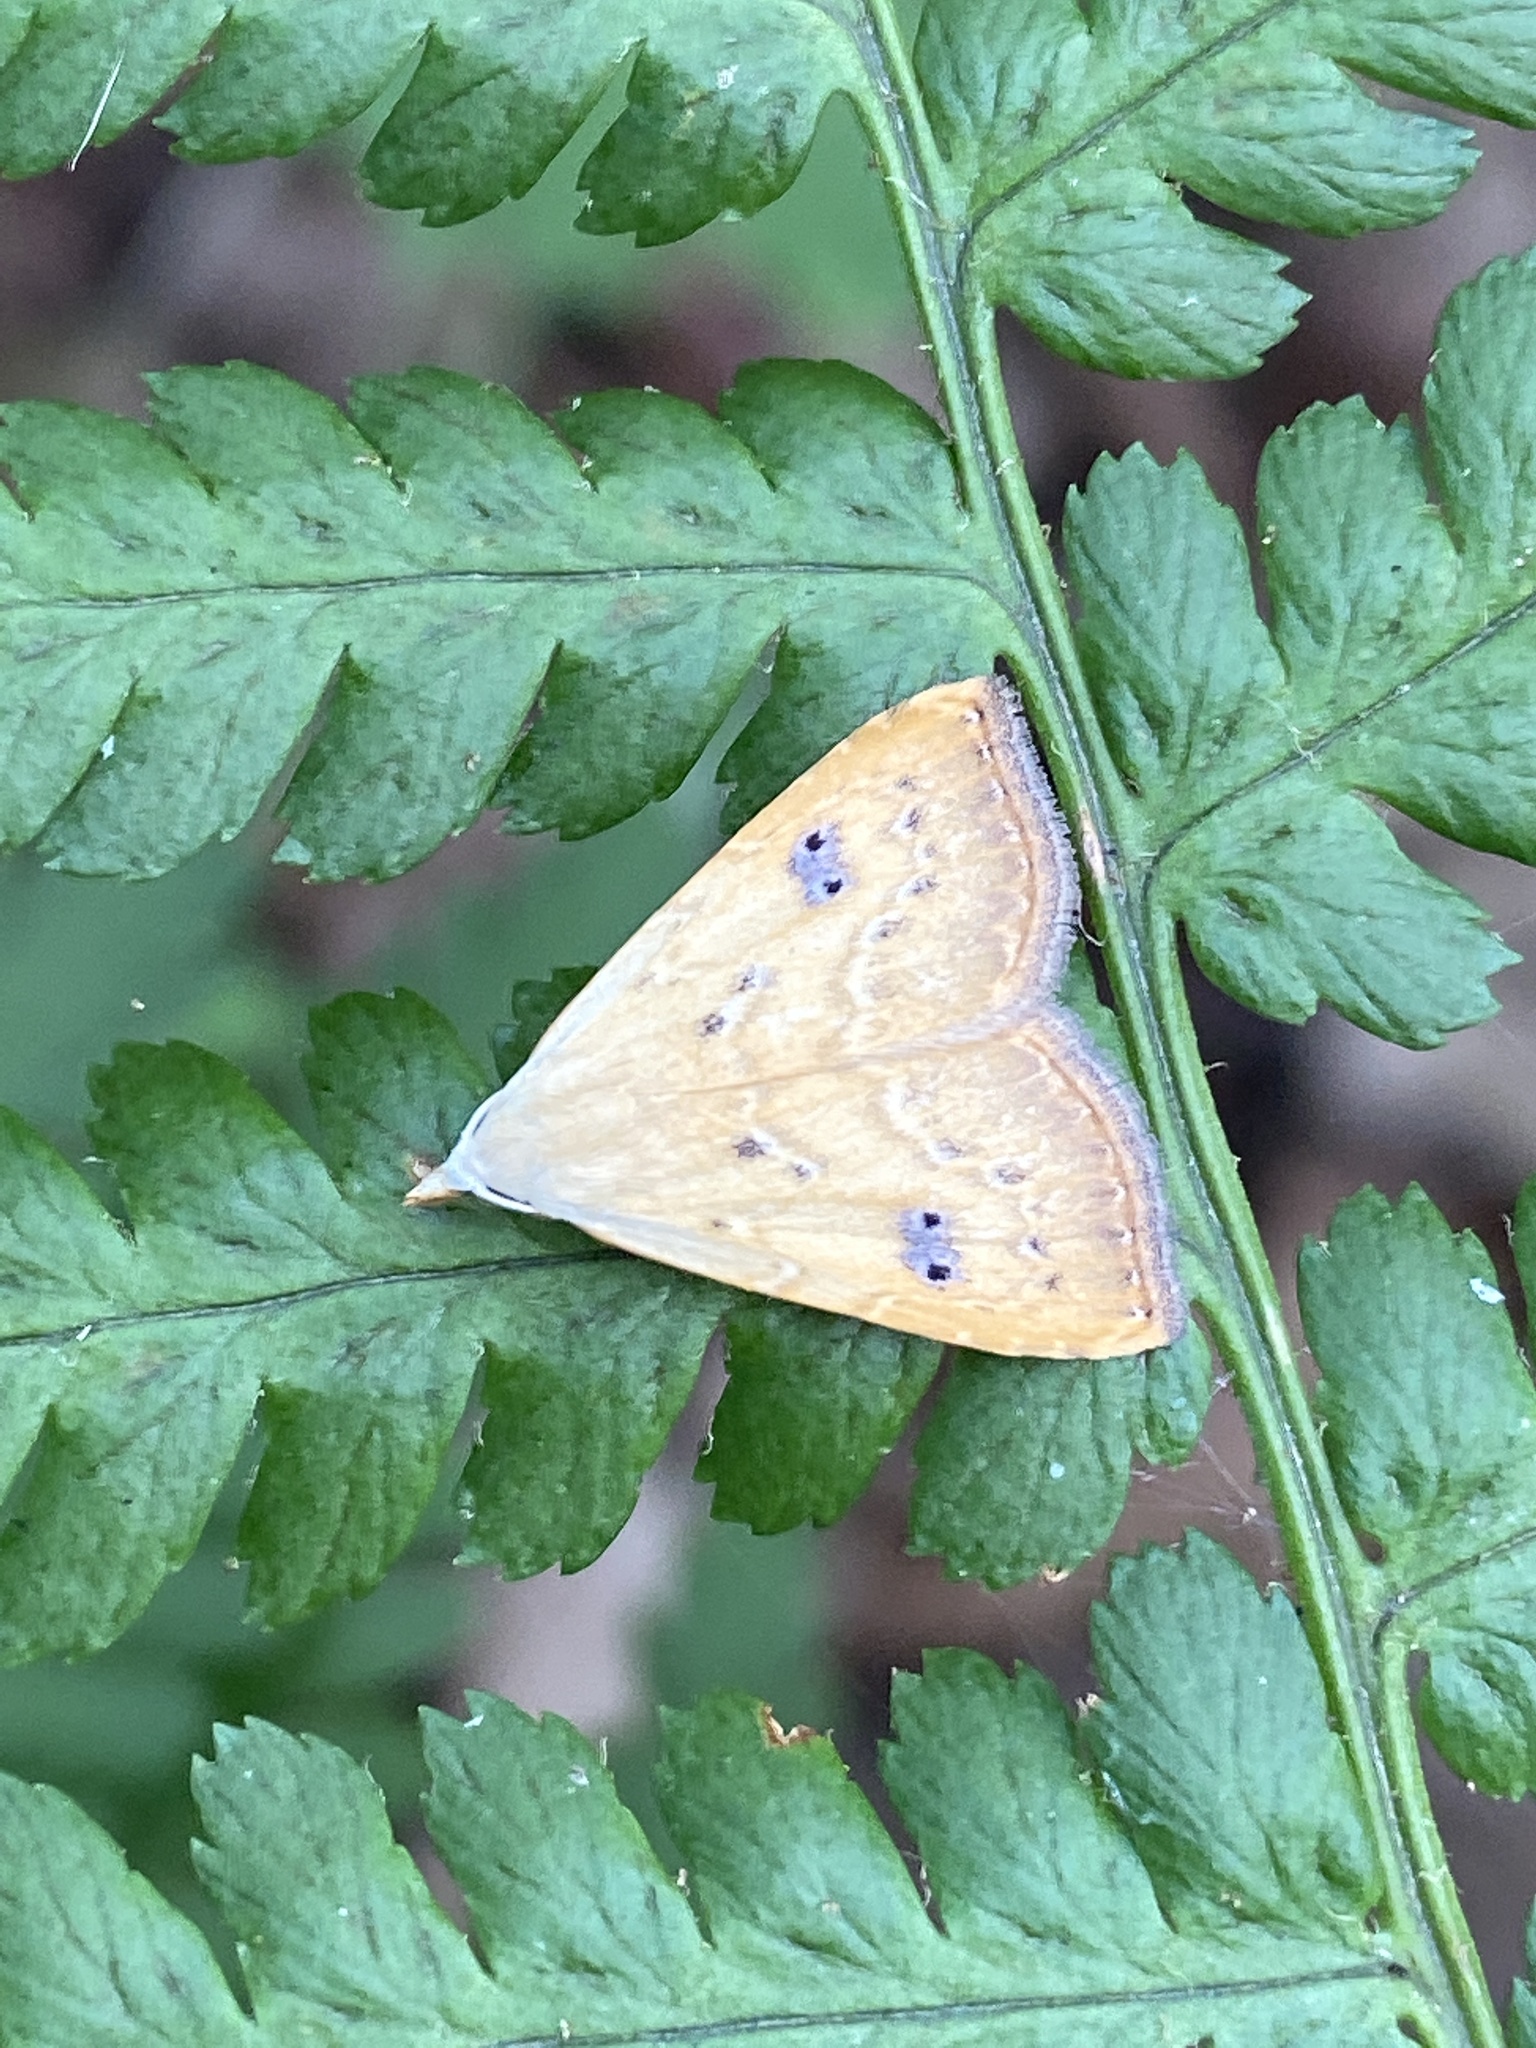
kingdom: Animalia
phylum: Arthropoda
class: Insecta
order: Lepidoptera
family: Erebidae
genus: Rivula
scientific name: Rivula sericealis
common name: Straw dot
